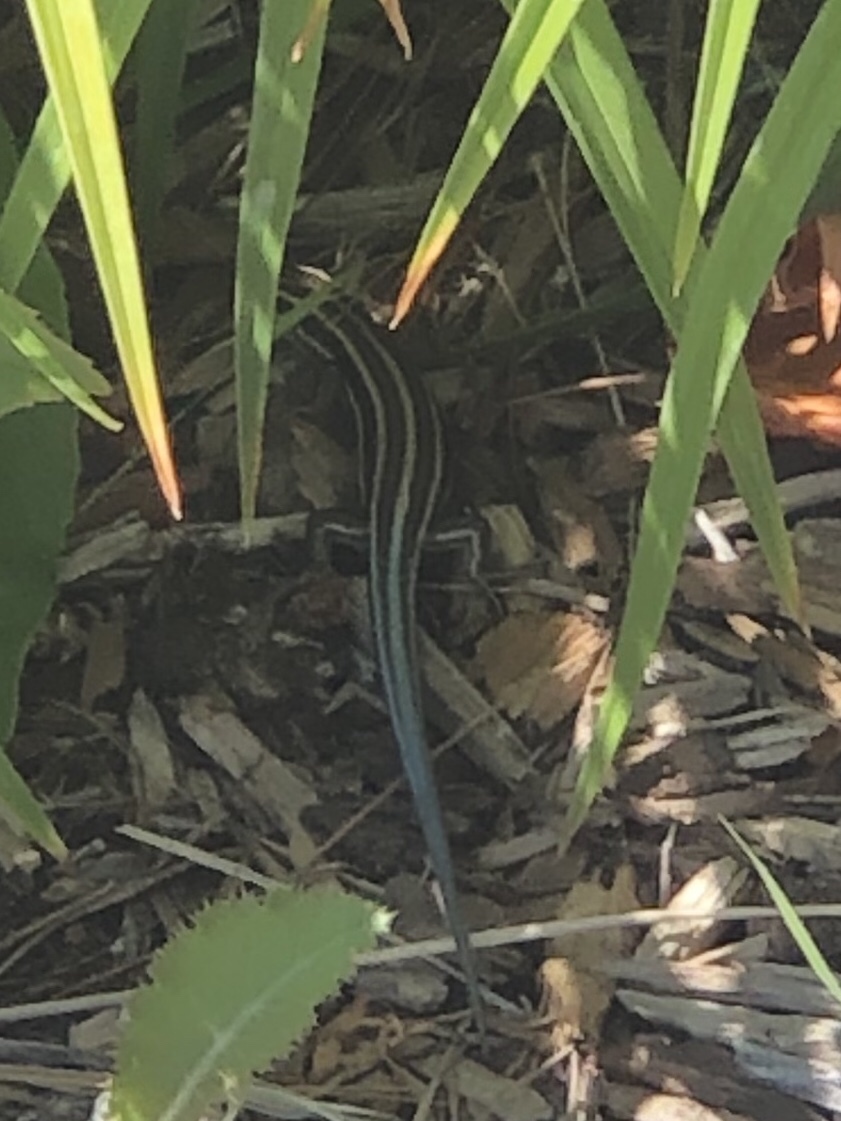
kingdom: Animalia
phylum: Chordata
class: Squamata
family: Scincidae
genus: Plestiodon
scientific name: Plestiodon fasciatus
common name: Five-lined skink
